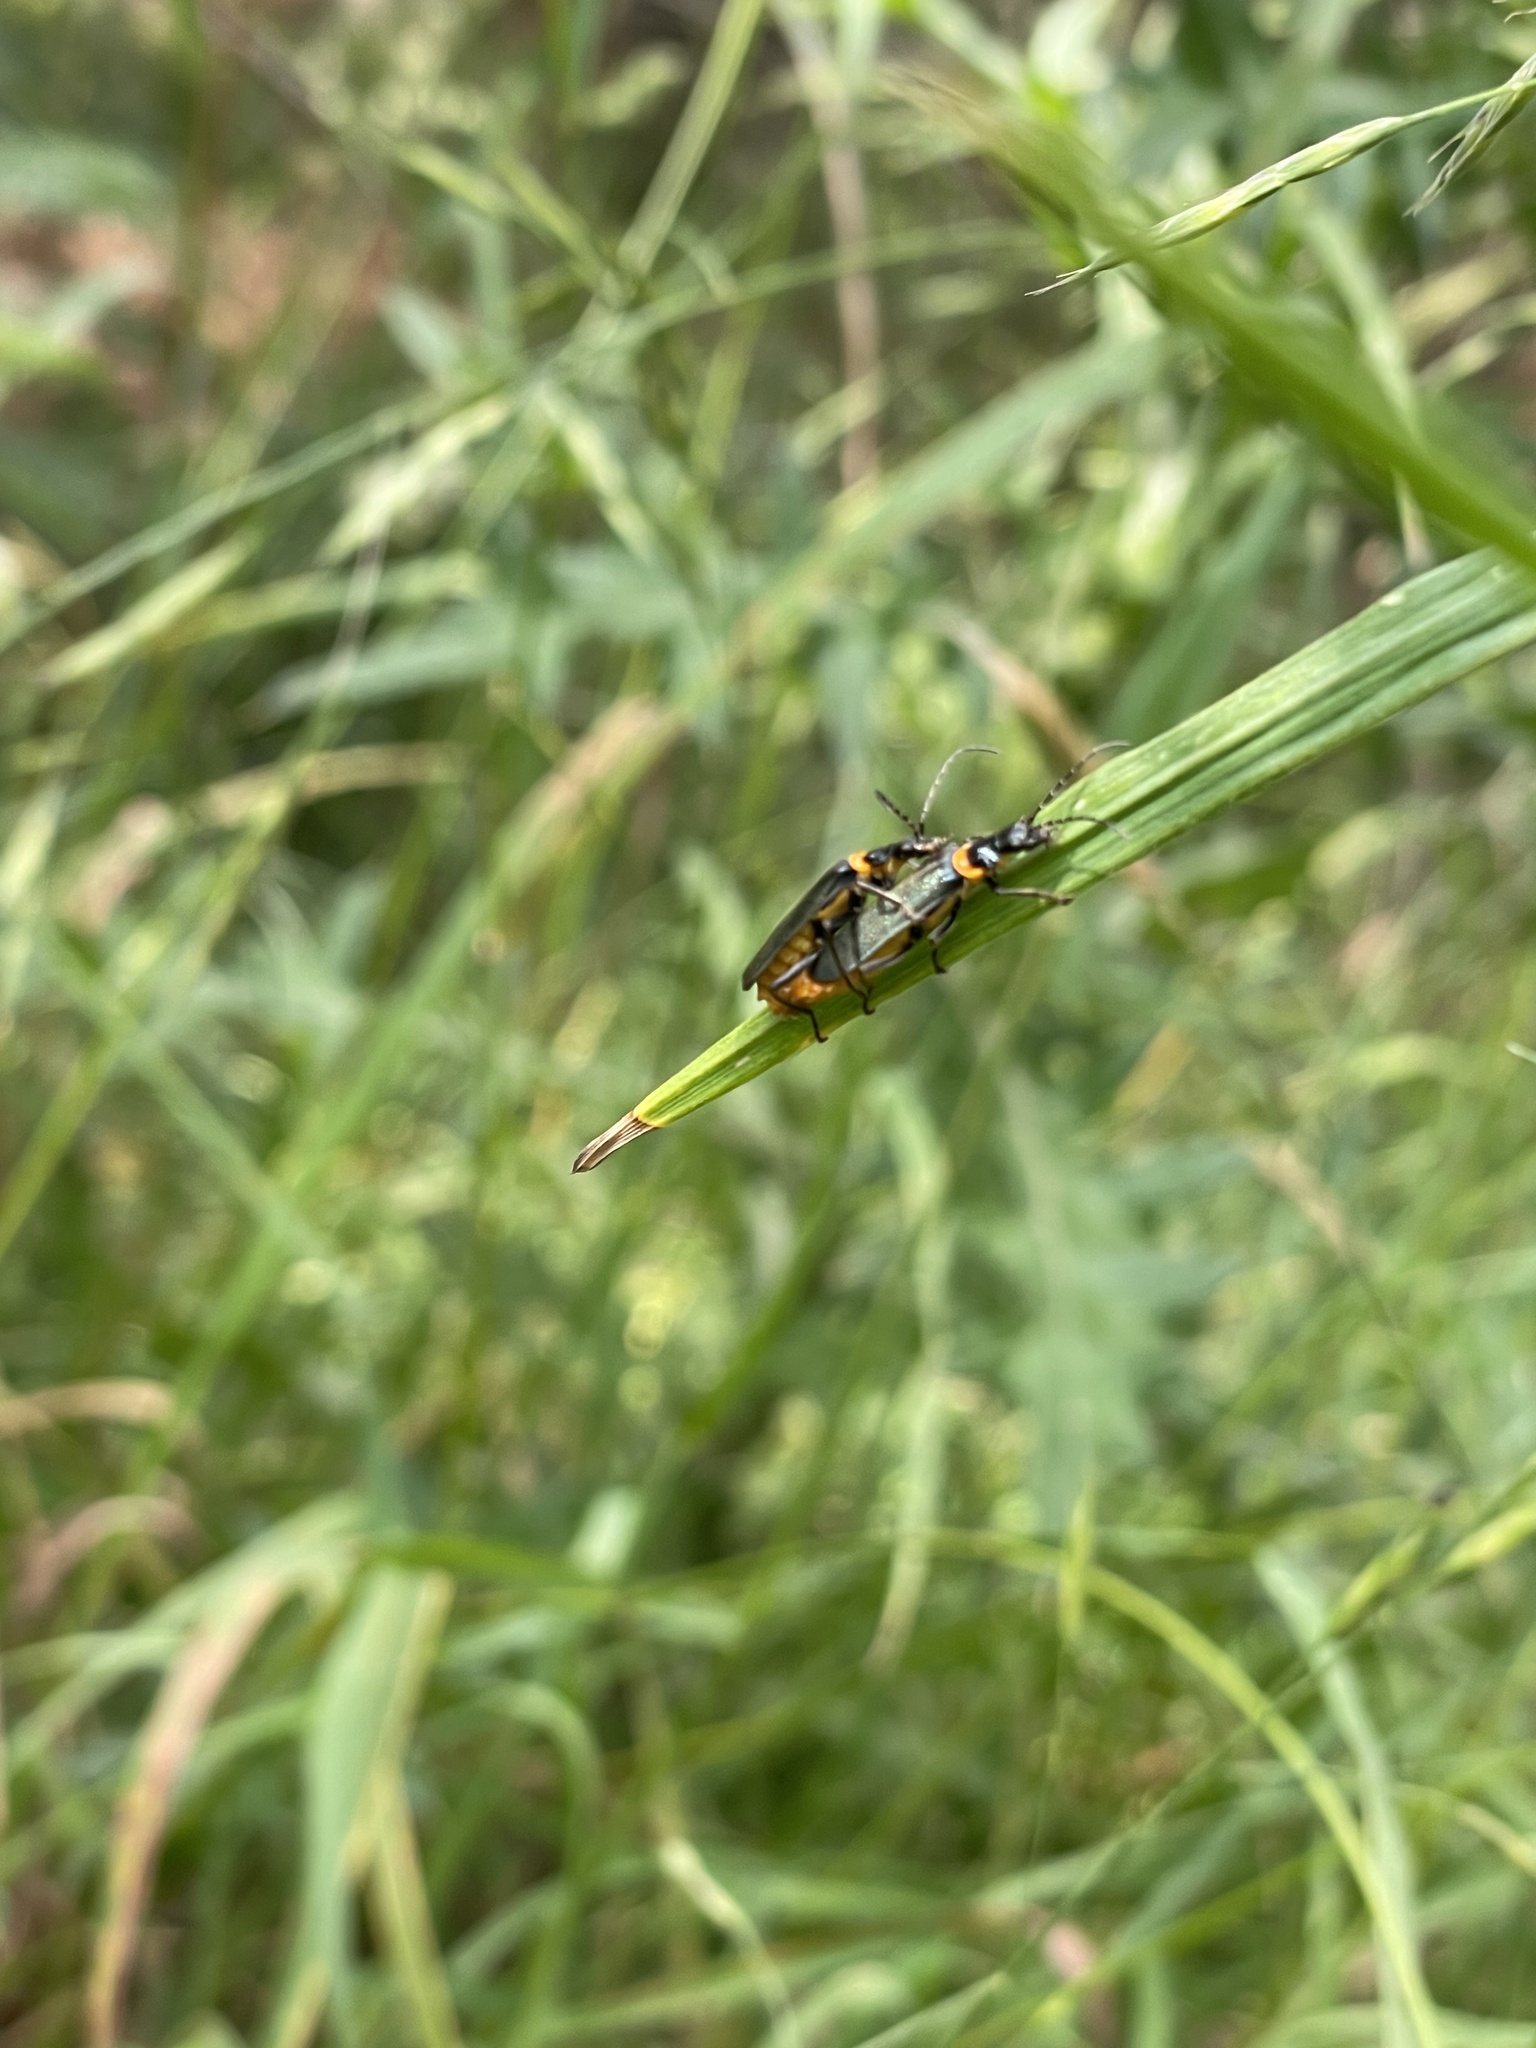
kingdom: Animalia
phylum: Arthropoda
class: Insecta
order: Coleoptera
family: Cantharidae
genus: Chauliognathus
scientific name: Chauliognathus
